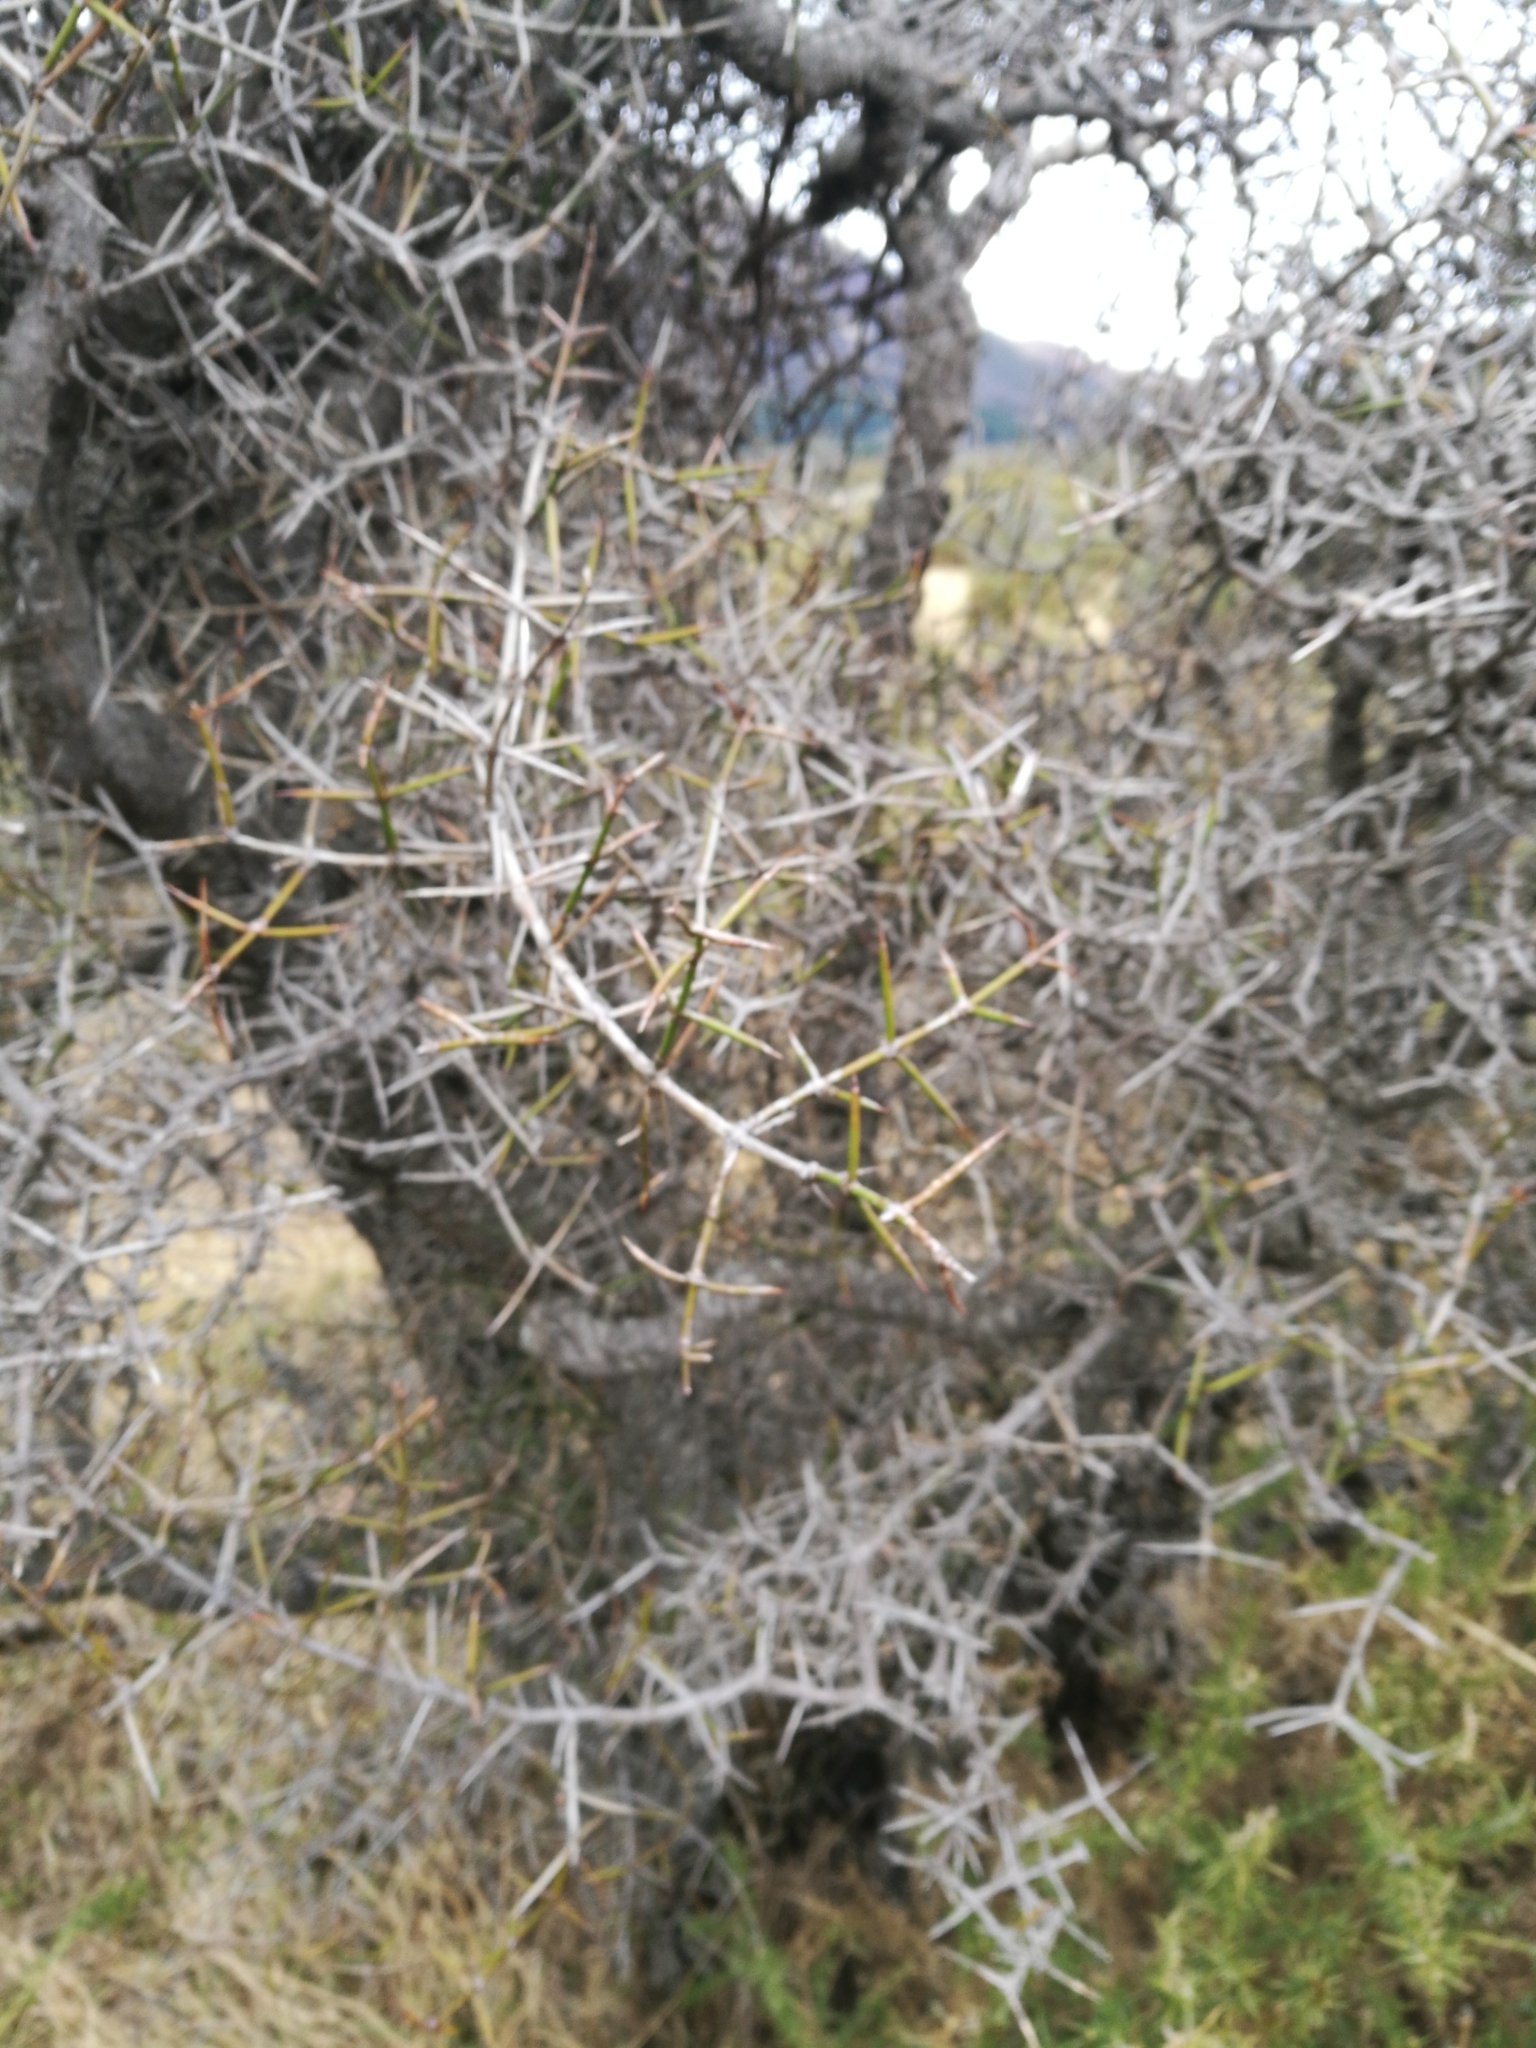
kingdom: Plantae
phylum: Tracheophyta
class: Magnoliopsida
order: Rosales
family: Rhamnaceae
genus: Discaria
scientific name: Discaria toumatou
